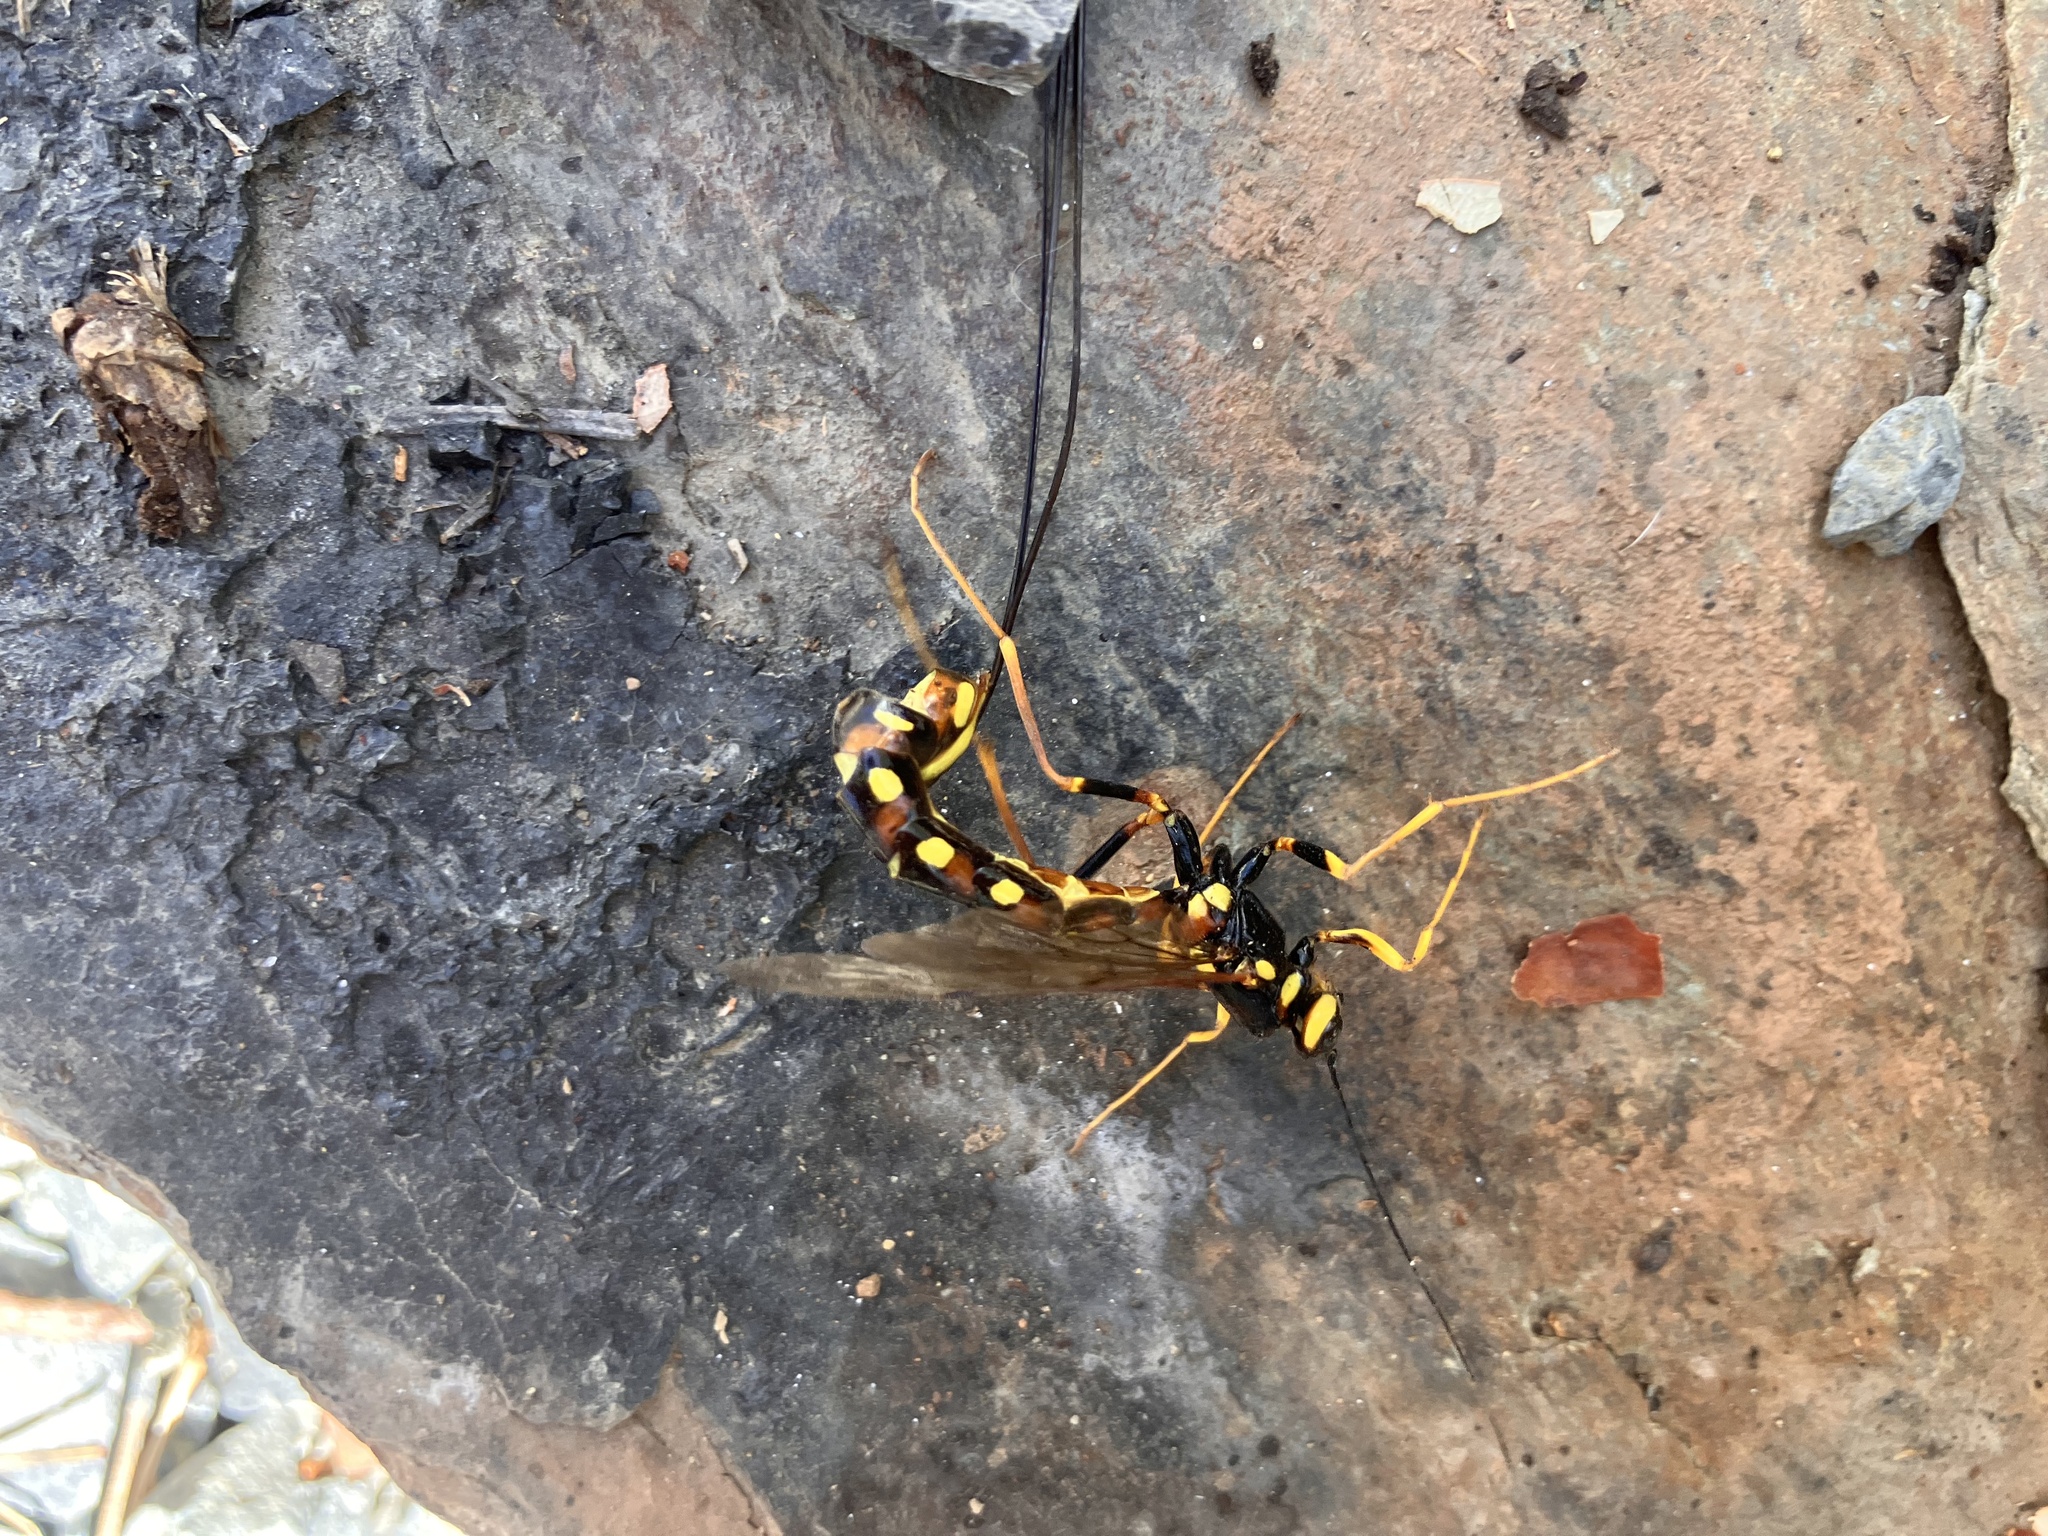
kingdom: Animalia
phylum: Arthropoda
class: Insecta
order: Hymenoptera
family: Ichneumonidae
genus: Megarhyssa
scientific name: Megarhyssa nortoni
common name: Norton's giant ichneumonid wasp
